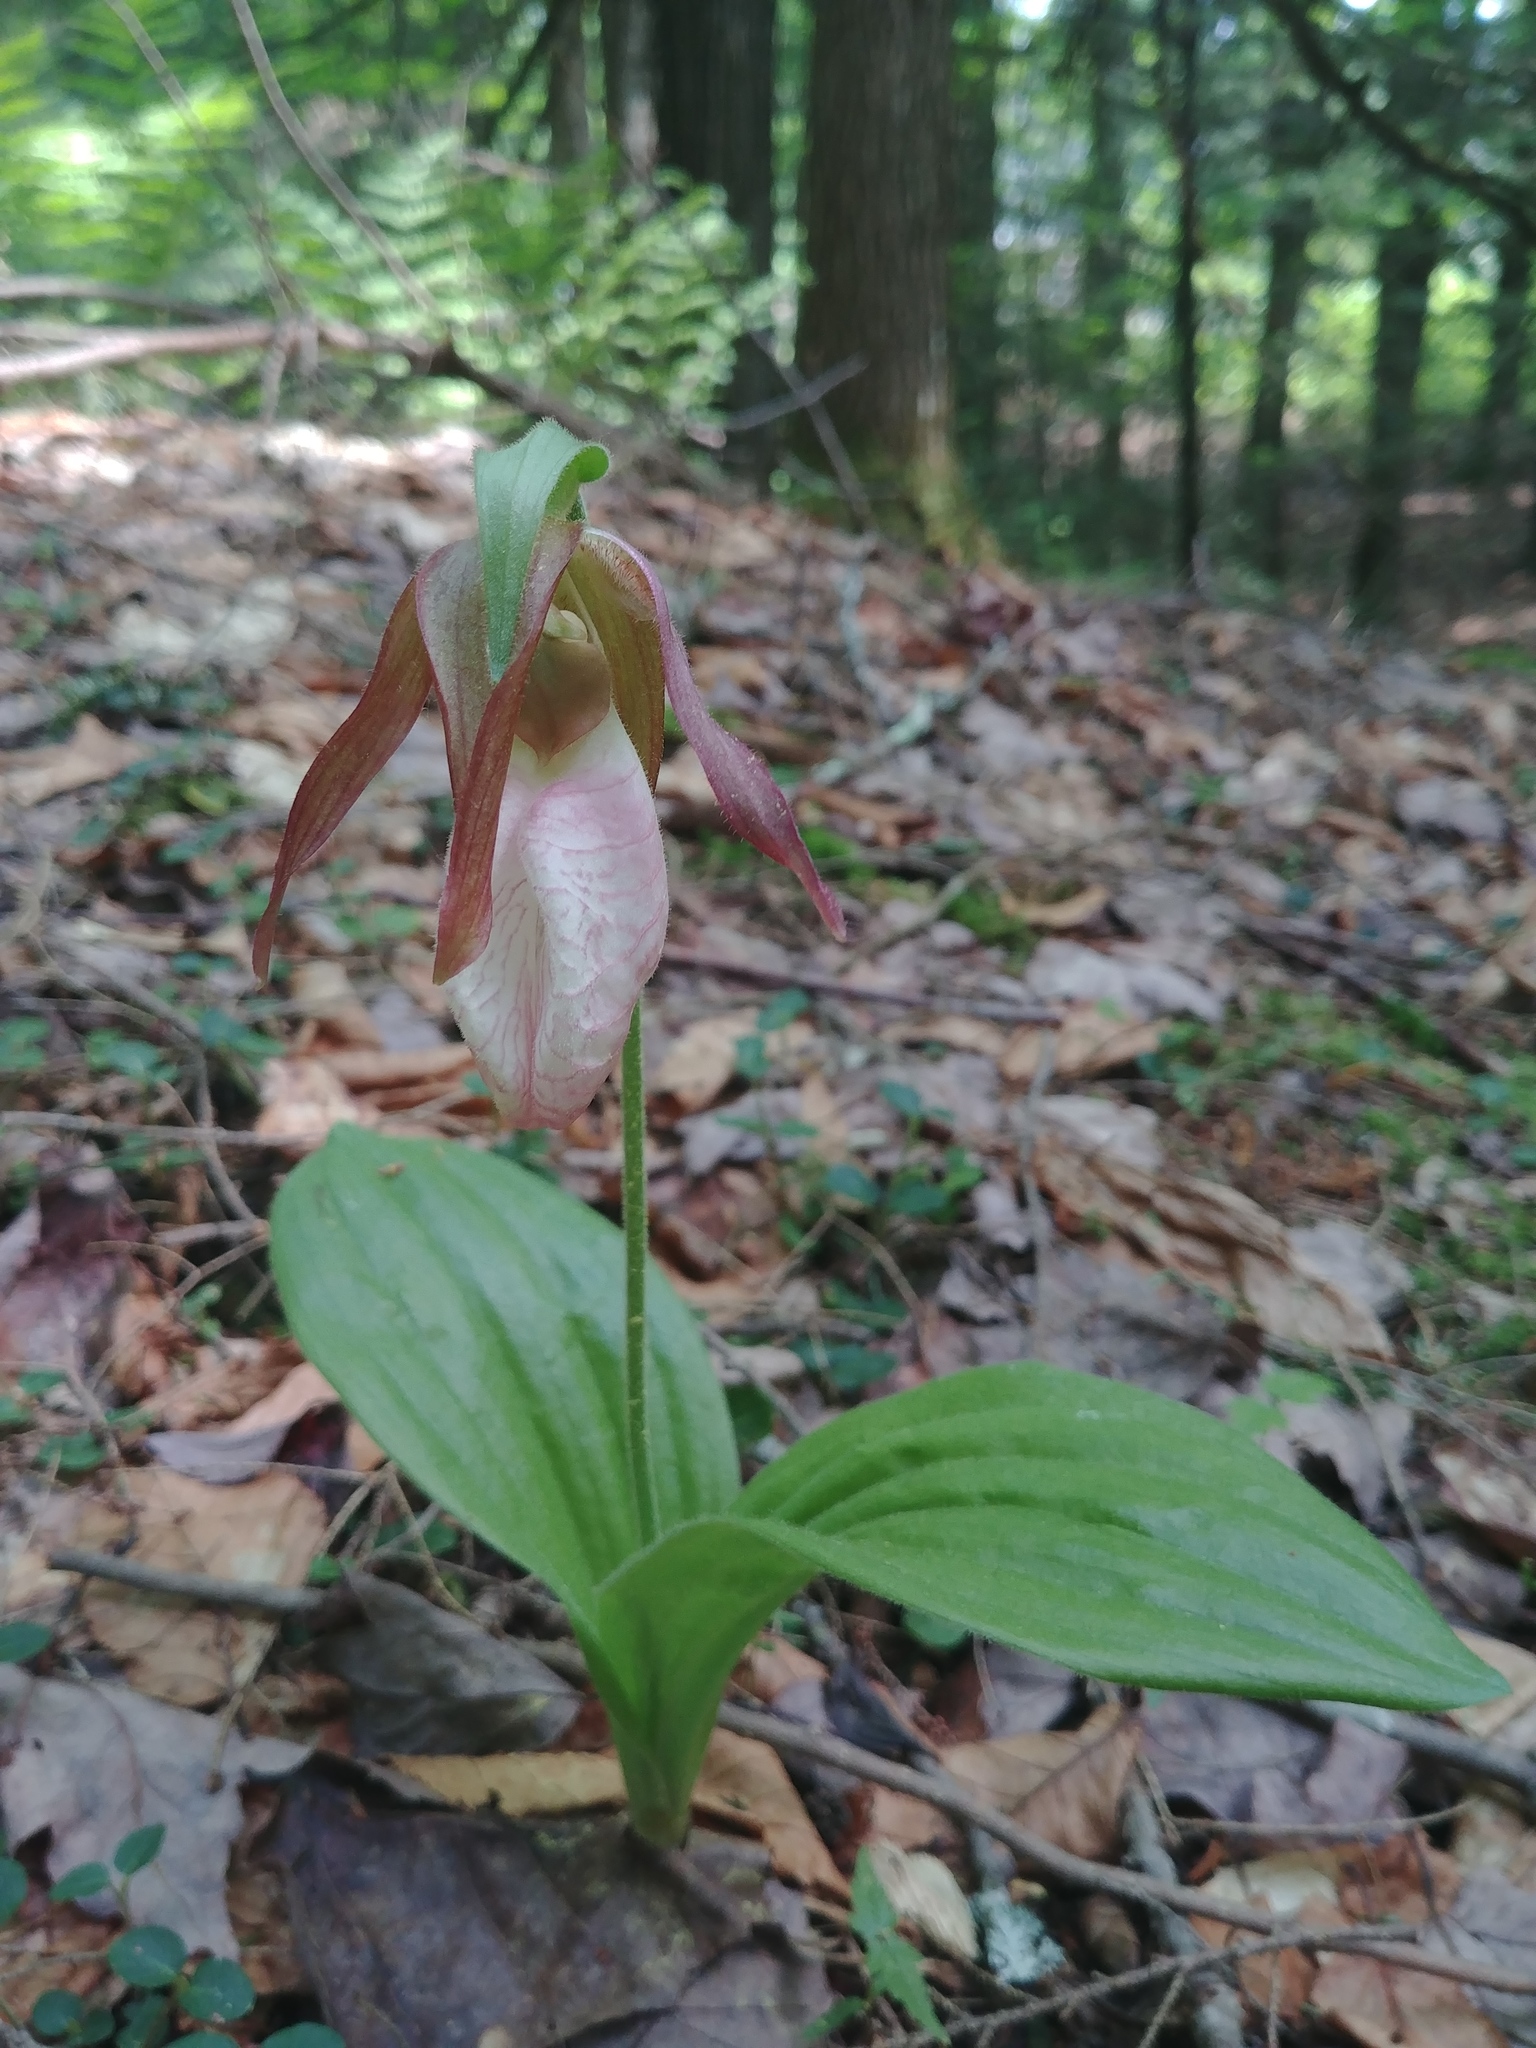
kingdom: Plantae
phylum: Tracheophyta
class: Liliopsida
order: Asparagales
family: Orchidaceae
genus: Cypripedium
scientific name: Cypripedium acaule
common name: Pink lady's-slipper
